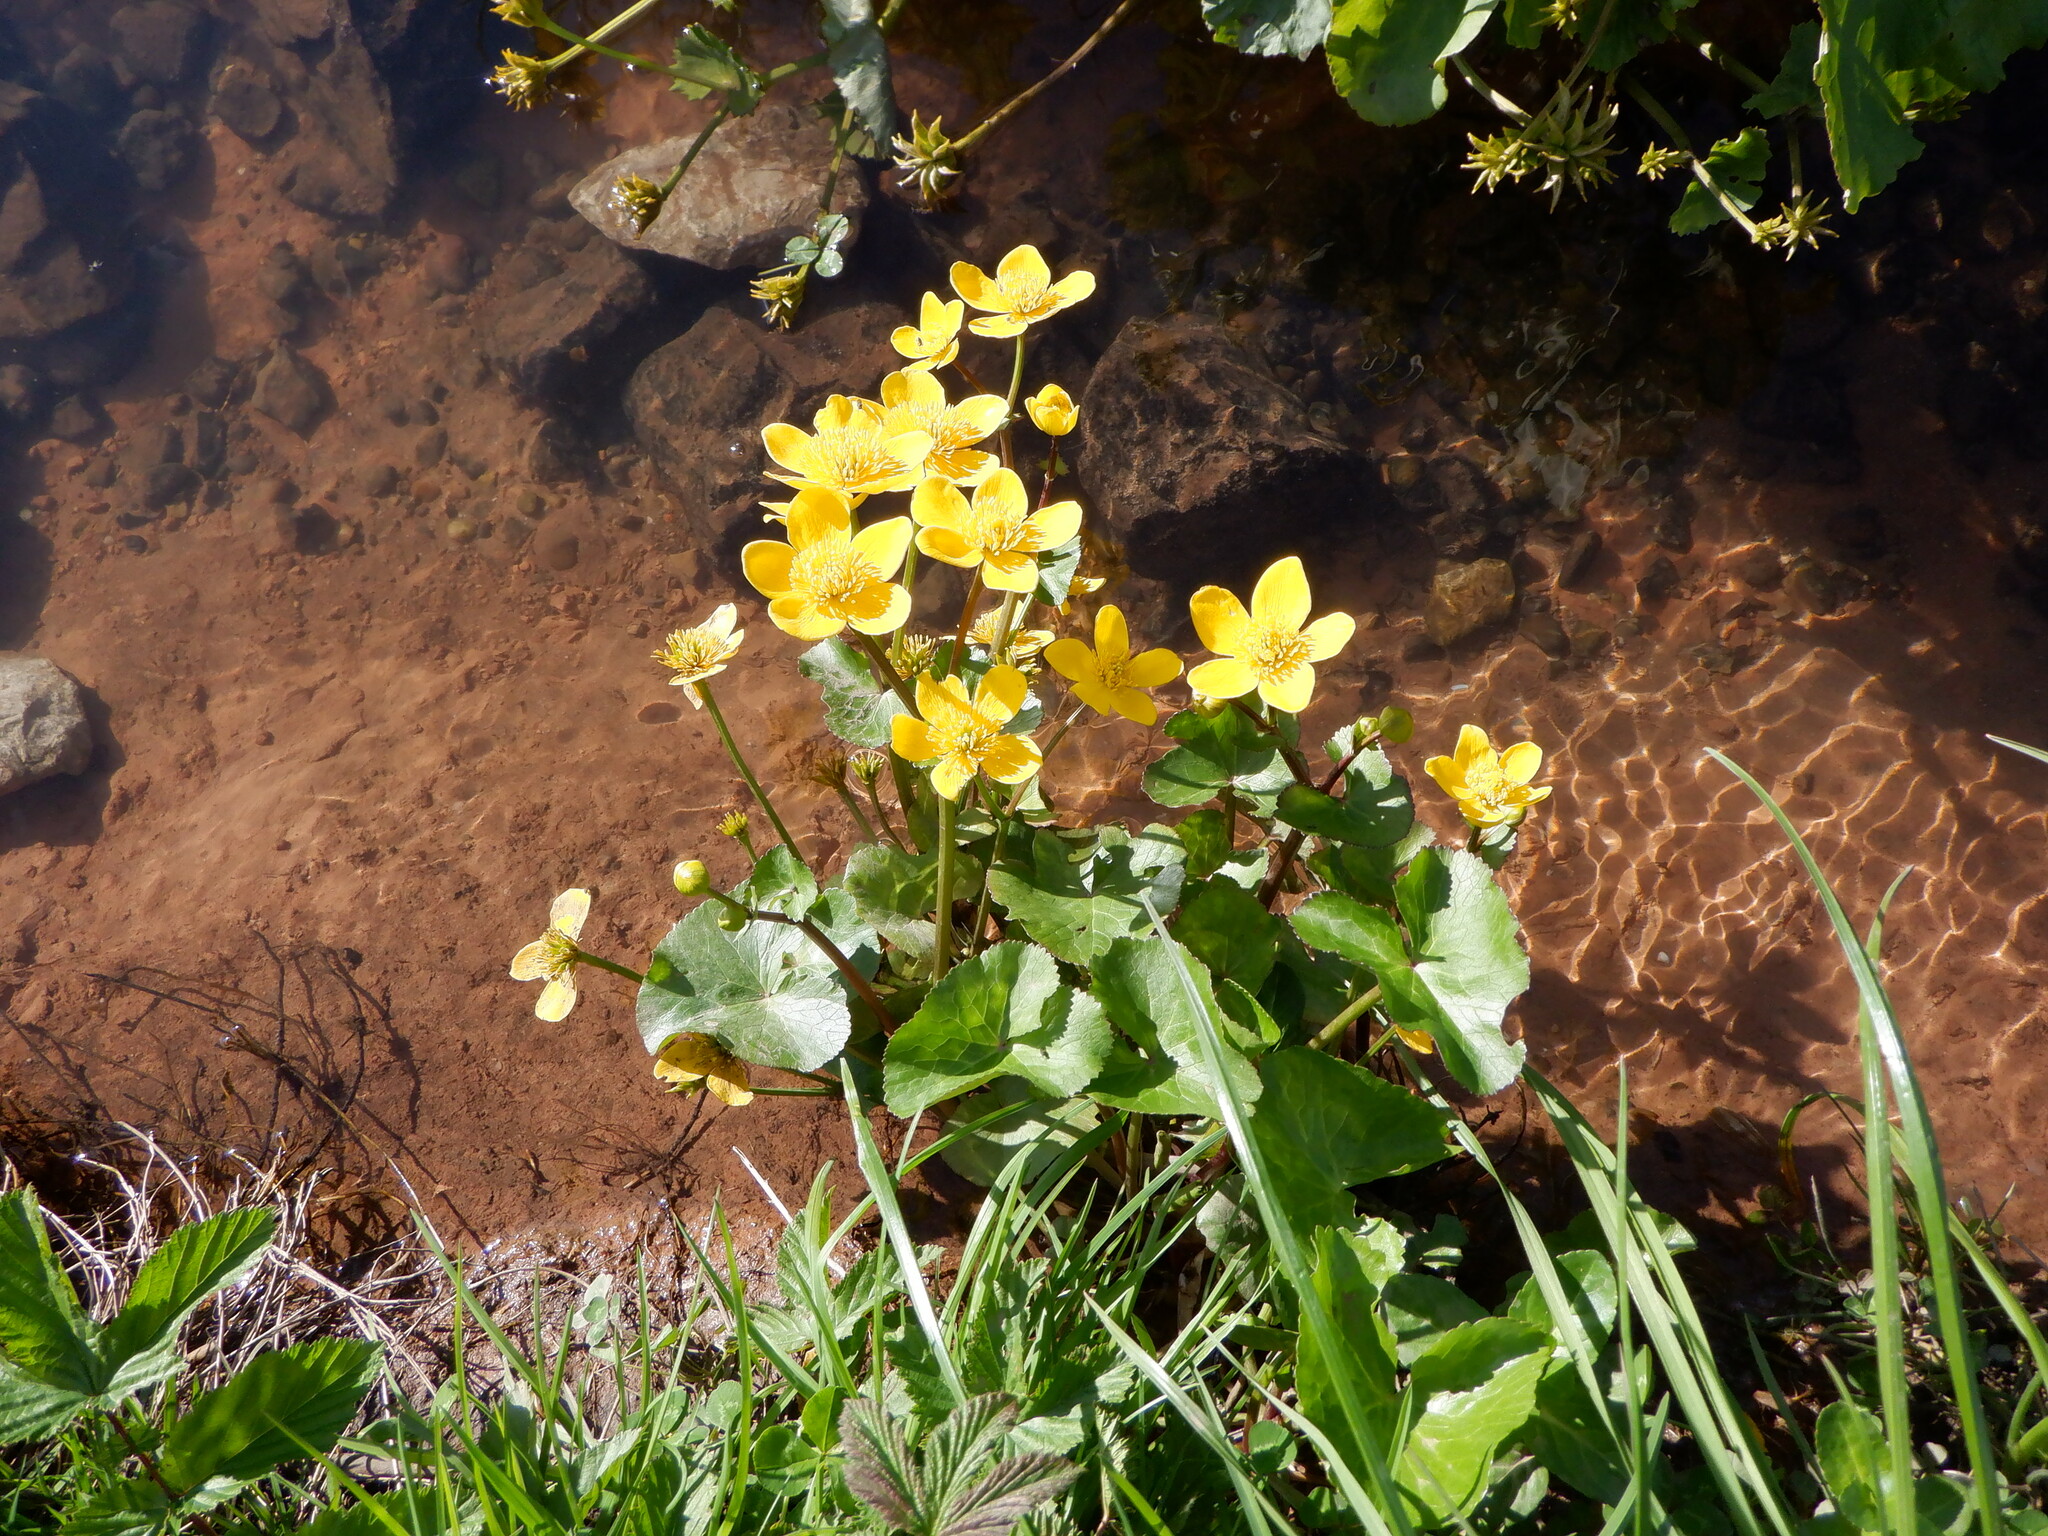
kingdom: Plantae
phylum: Tracheophyta
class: Magnoliopsida
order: Ranunculales
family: Ranunculaceae
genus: Caltha
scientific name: Caltha palustris
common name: Marsh marigold
